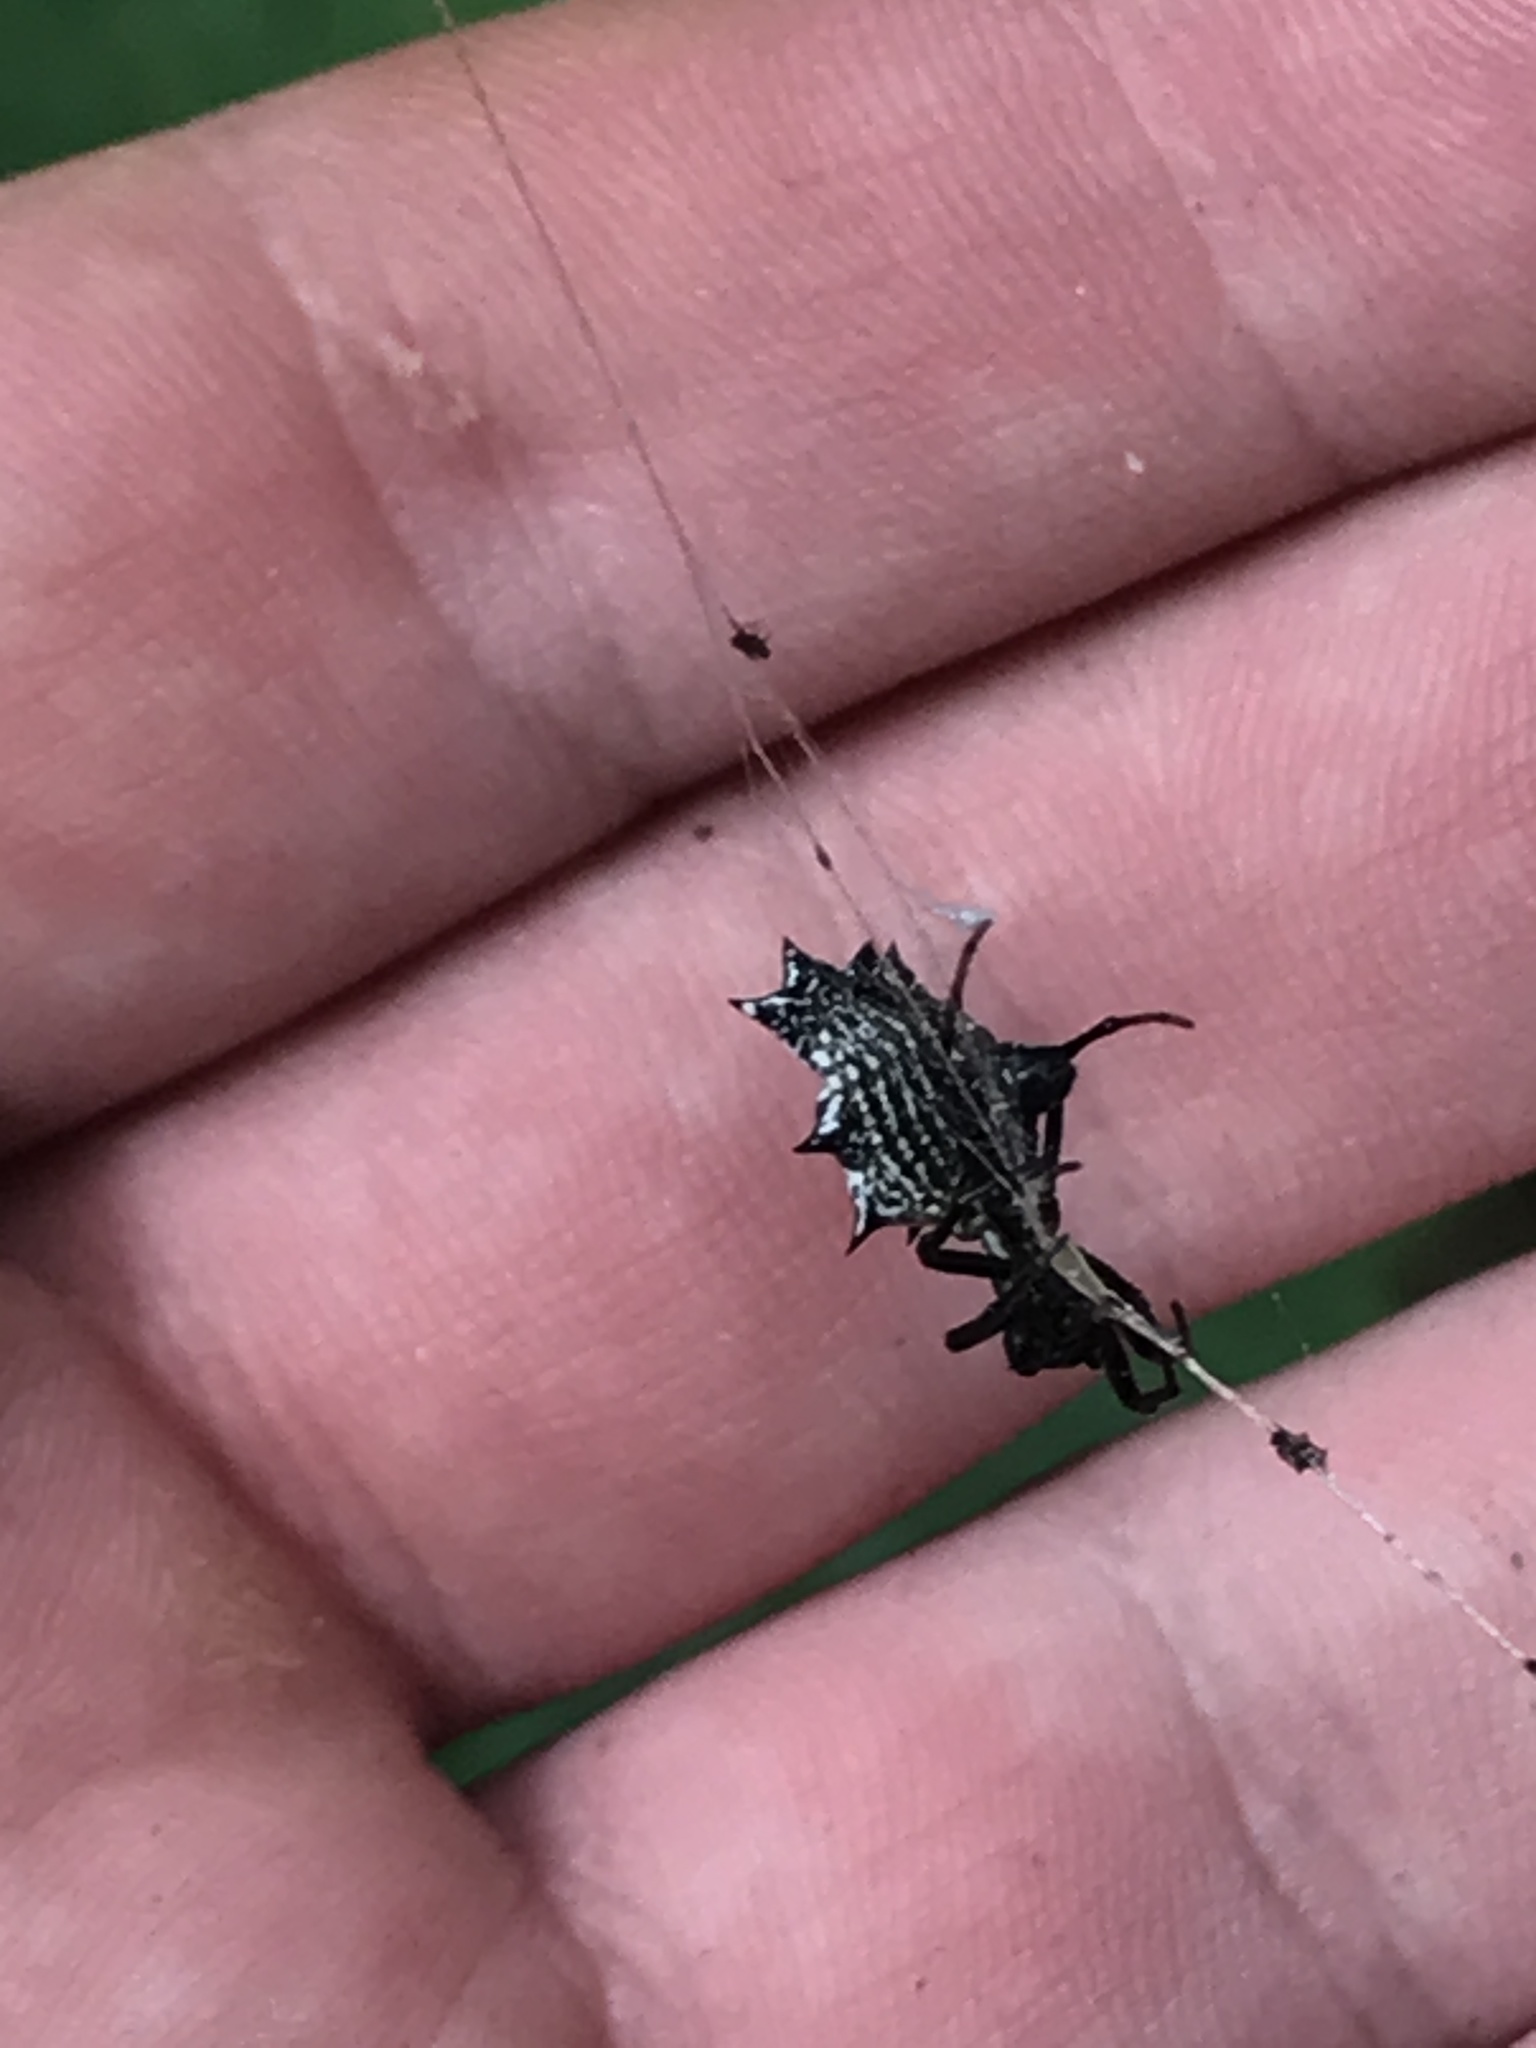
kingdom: Animalia
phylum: Arthropoda
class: Arachnida
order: Araneae
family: Araneidae
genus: Micrathena
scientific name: Micrathena gracilis
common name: Orb weavers
